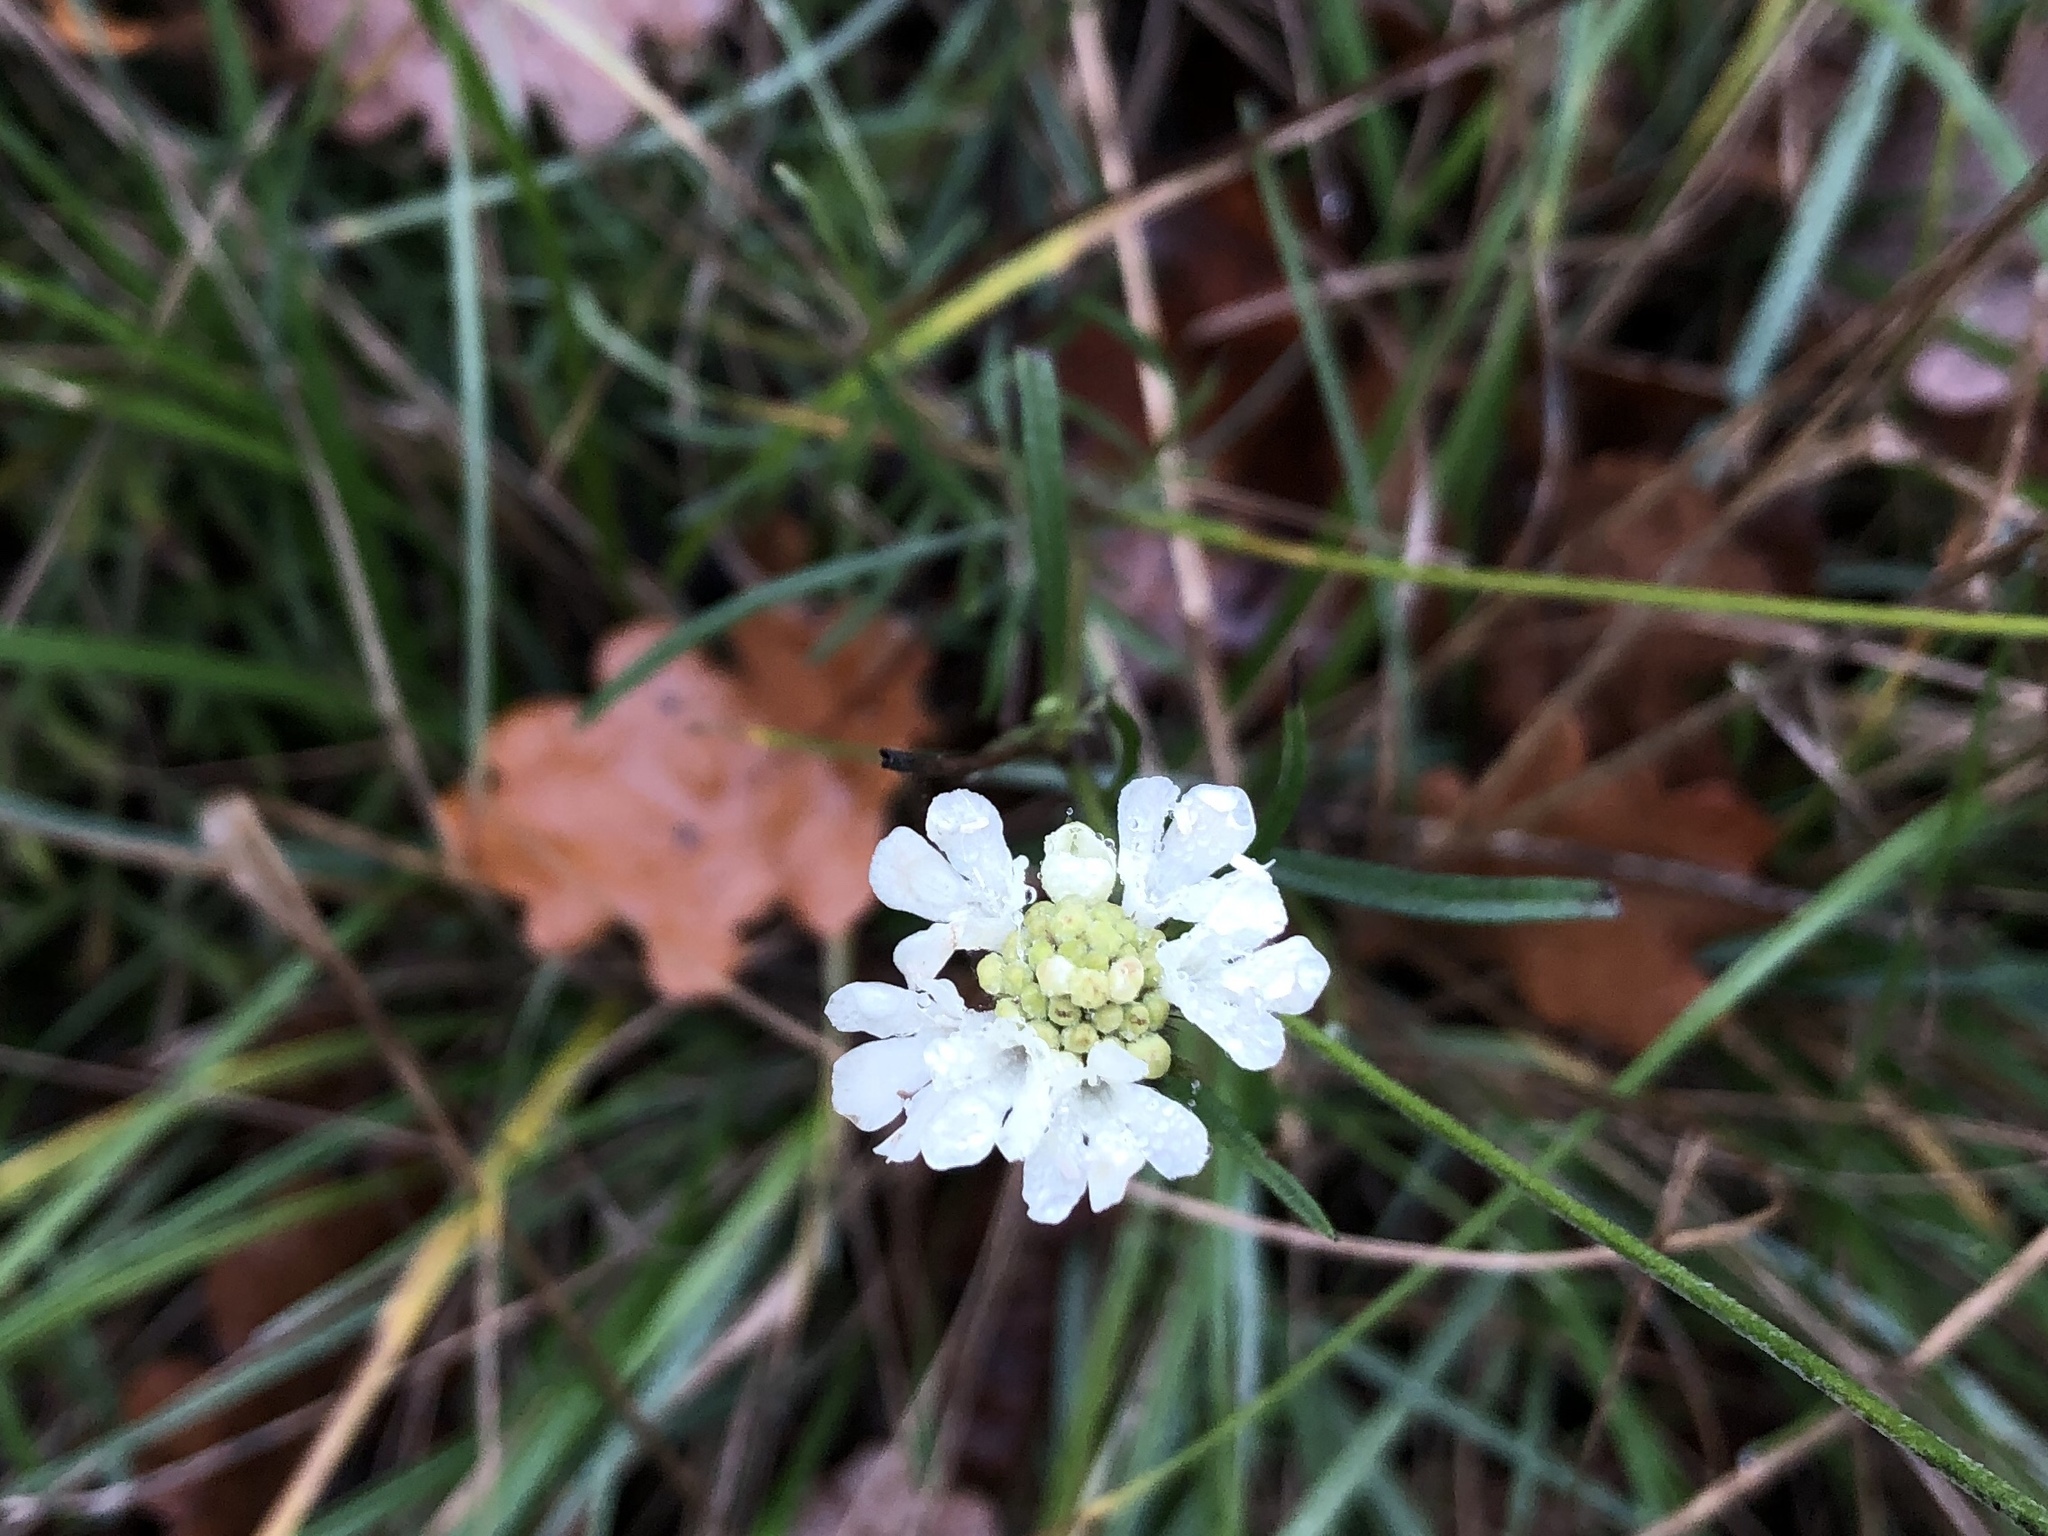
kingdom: Plantae
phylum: Tracheophyta
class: Magnoliopsida
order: Dipsacales
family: Caprifoliaceae
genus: Scabiosa
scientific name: Scabiosa ochroleuca
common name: Cream pincushions
